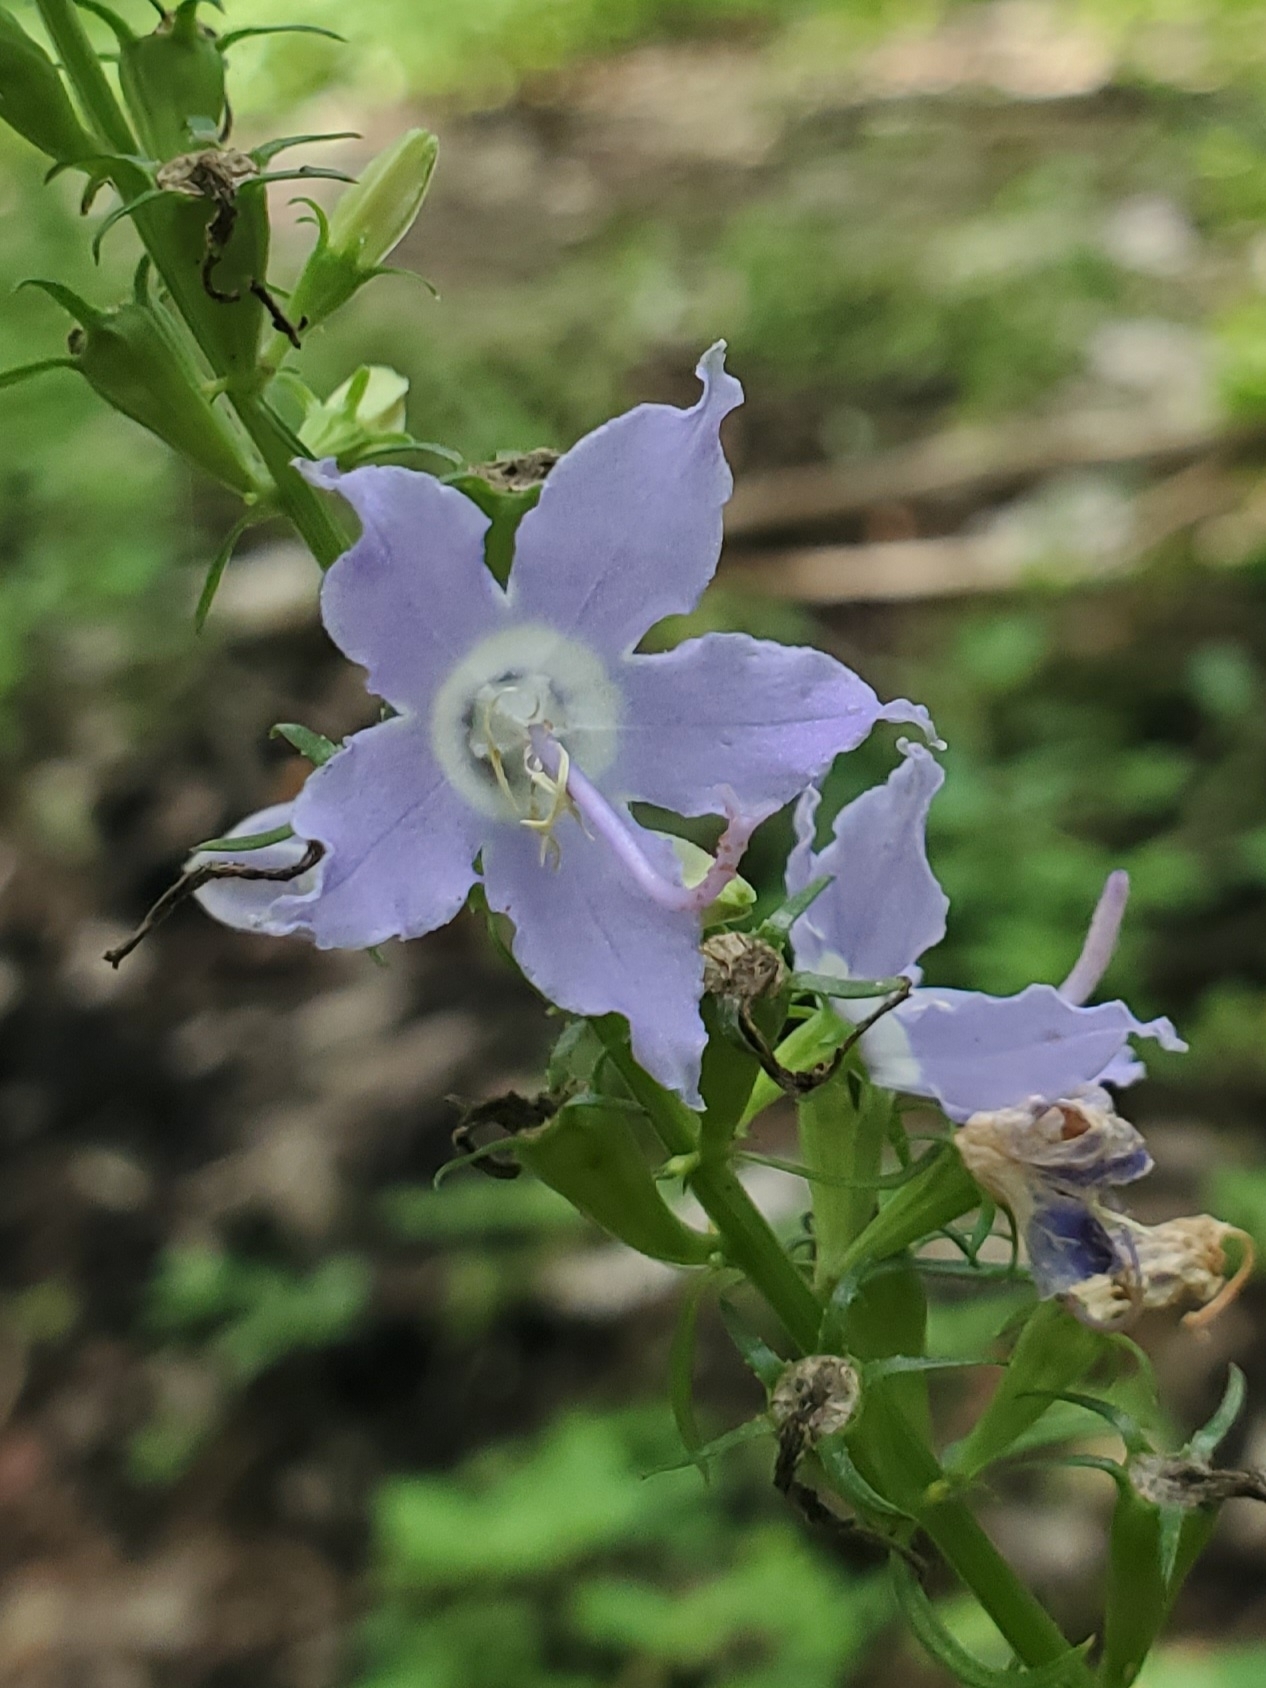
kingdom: Plantae
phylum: Tracheophyta
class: Magnoliopsida
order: Asterales
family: Campanulaceae
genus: Campanulastrum
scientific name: Campanulastrum americanum
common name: American bellflower
